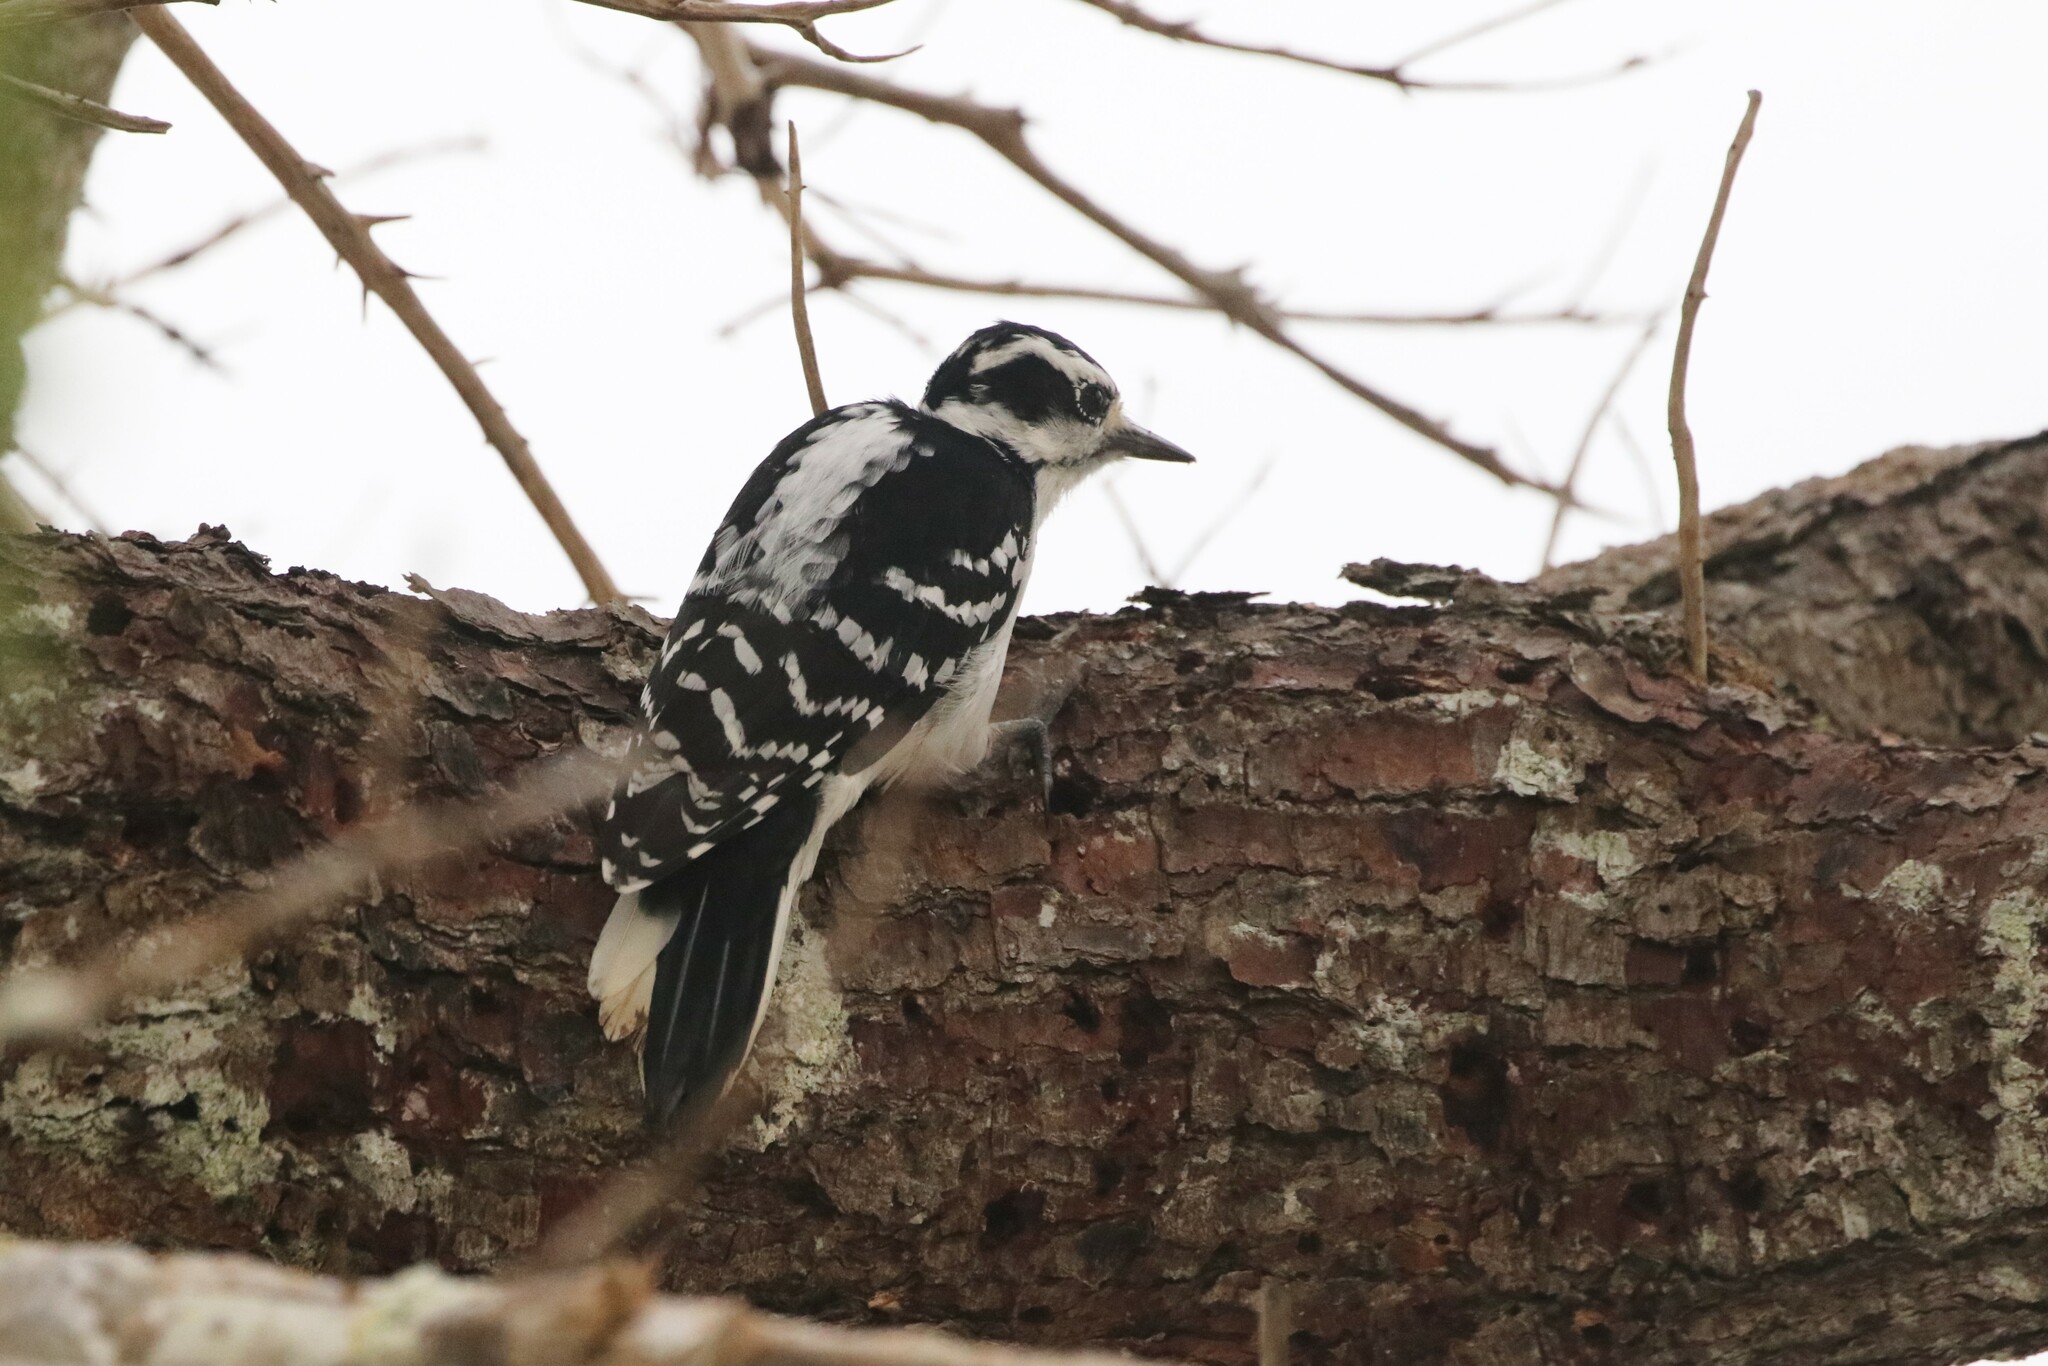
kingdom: Animalia
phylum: Chordata
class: Aves
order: Piciformes
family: Picidae
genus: Leuconotopicus
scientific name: Leuconotopicus villosus
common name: Hairy woodpecker
